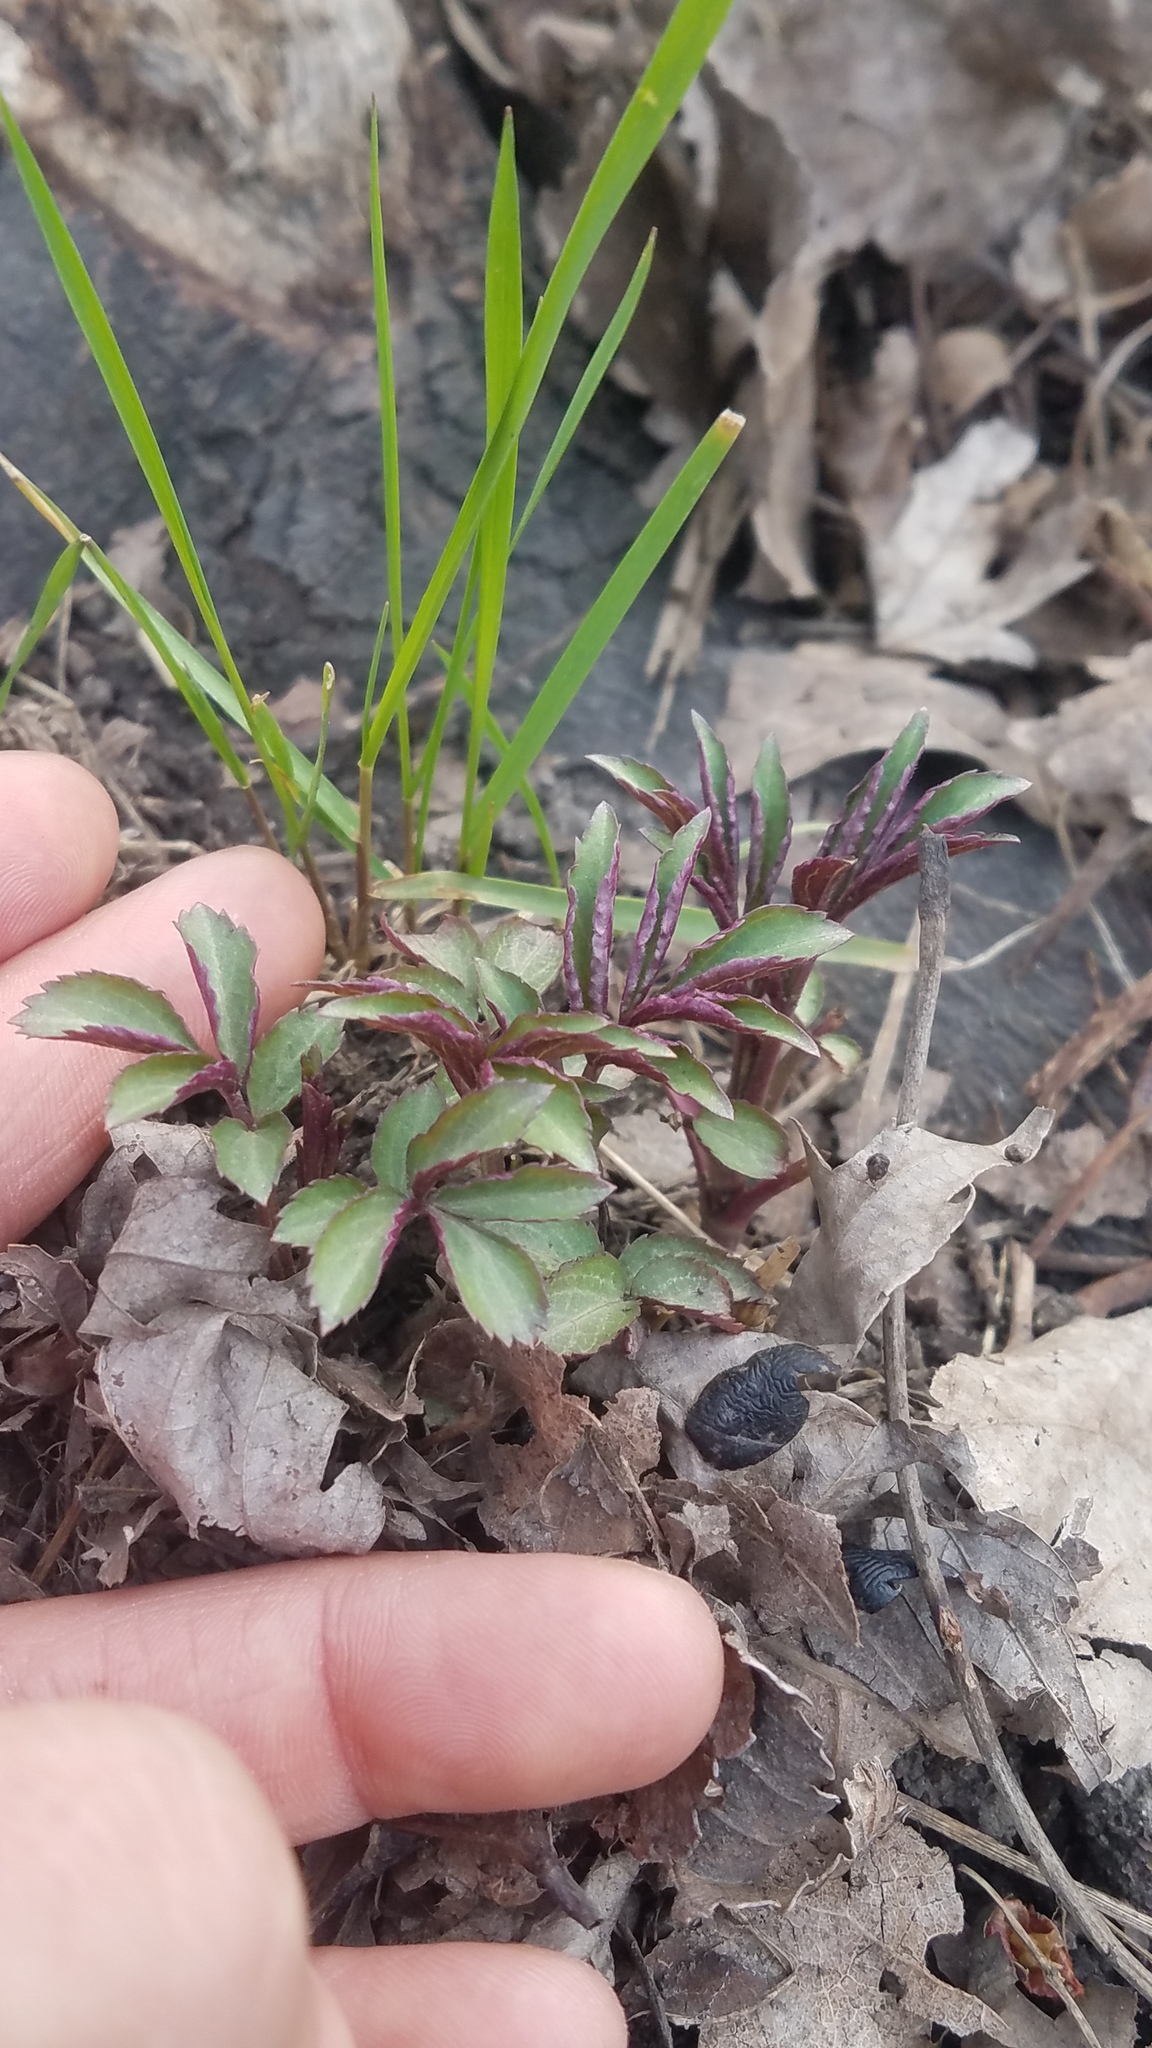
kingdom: Plantae
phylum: Tracheophyta
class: Magnoliopsida
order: Dipsacales
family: Viburnaceae
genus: Sambucus
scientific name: Sambucus canadensis
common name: American elder
